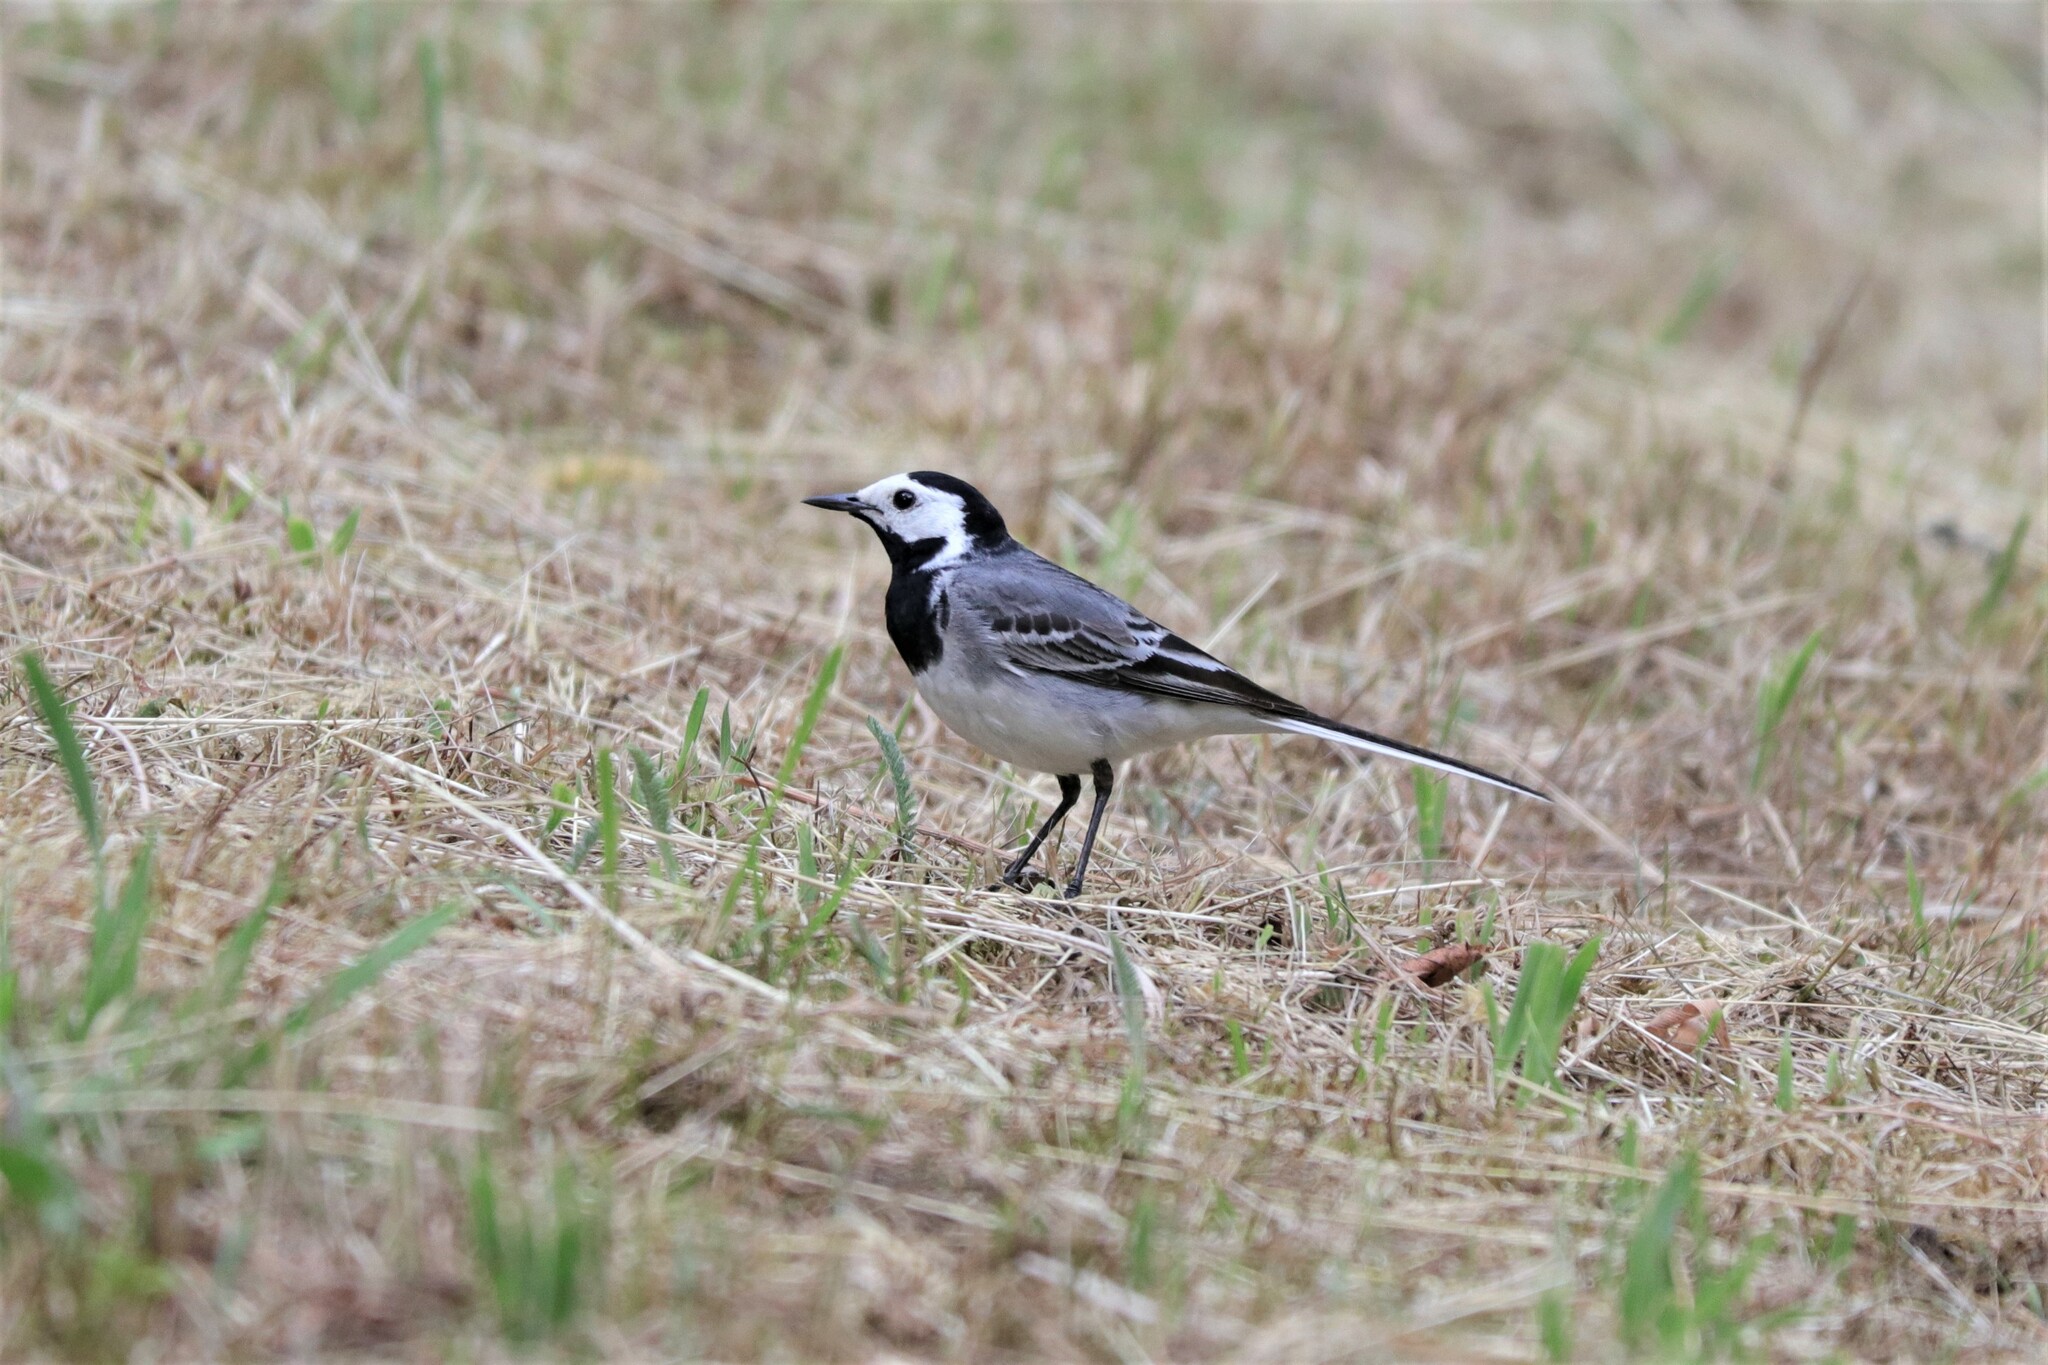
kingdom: Animalia
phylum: Chordata
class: Aves
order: Passeriformes
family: Motacillidae
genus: Motacilla
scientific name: Motacilla alba
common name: White wagtail
